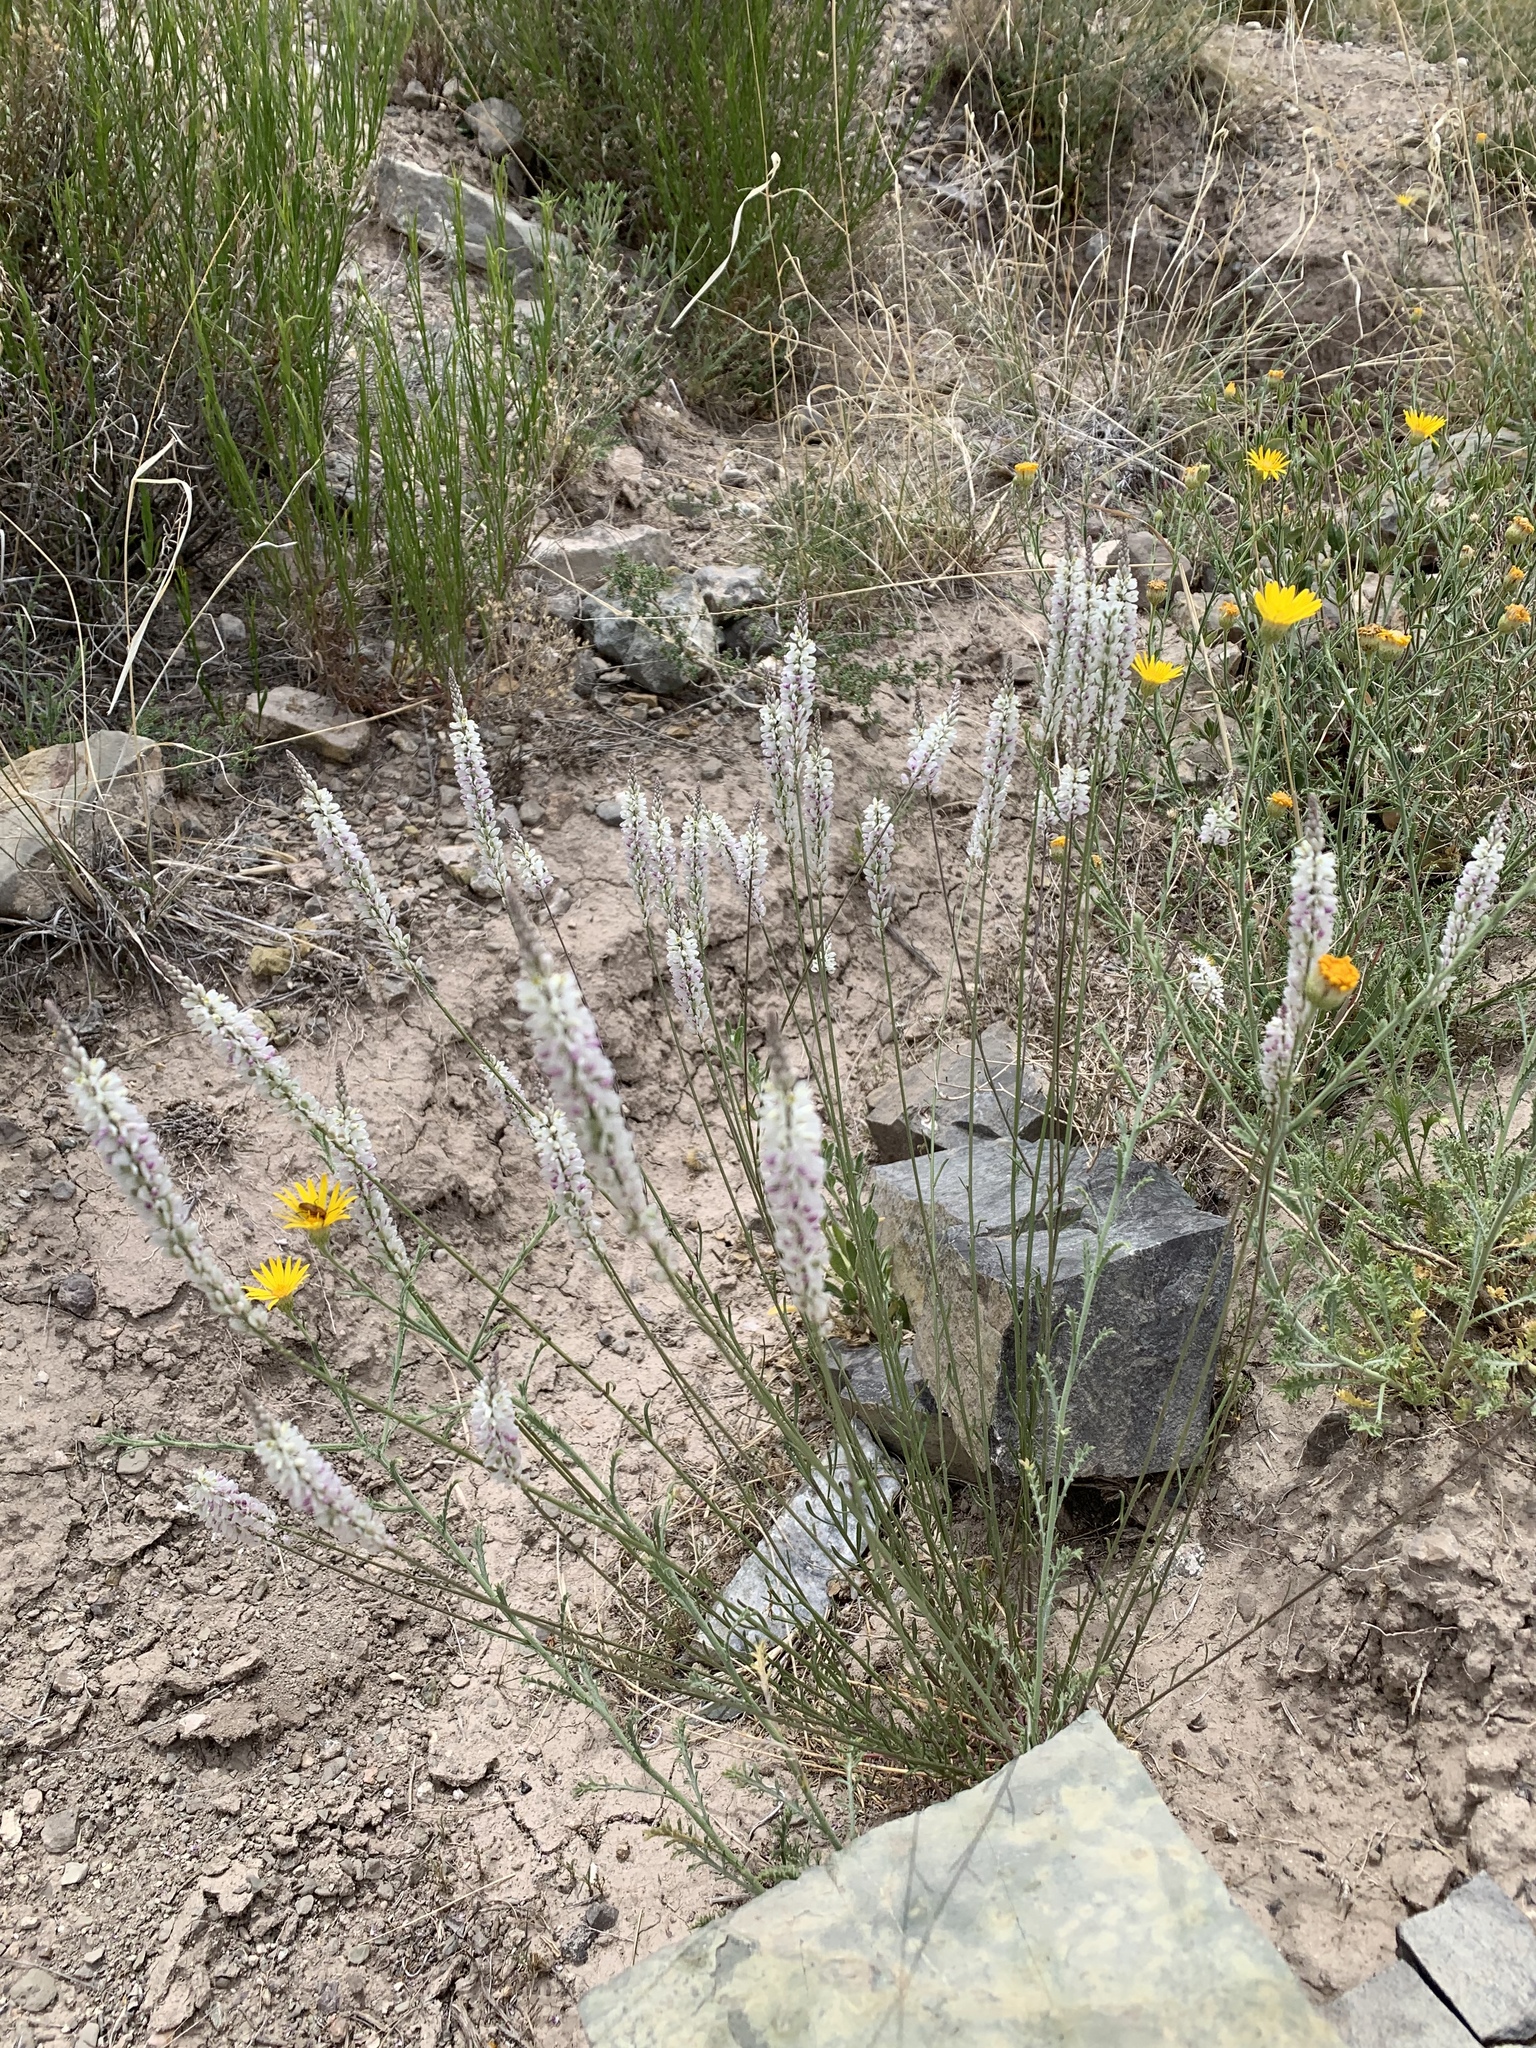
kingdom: Plantae
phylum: Tracheophyta
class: Magnoliopsida
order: Fabales
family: Polygalaceae
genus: Polygala
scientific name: Polygala alba
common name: White milkwort
